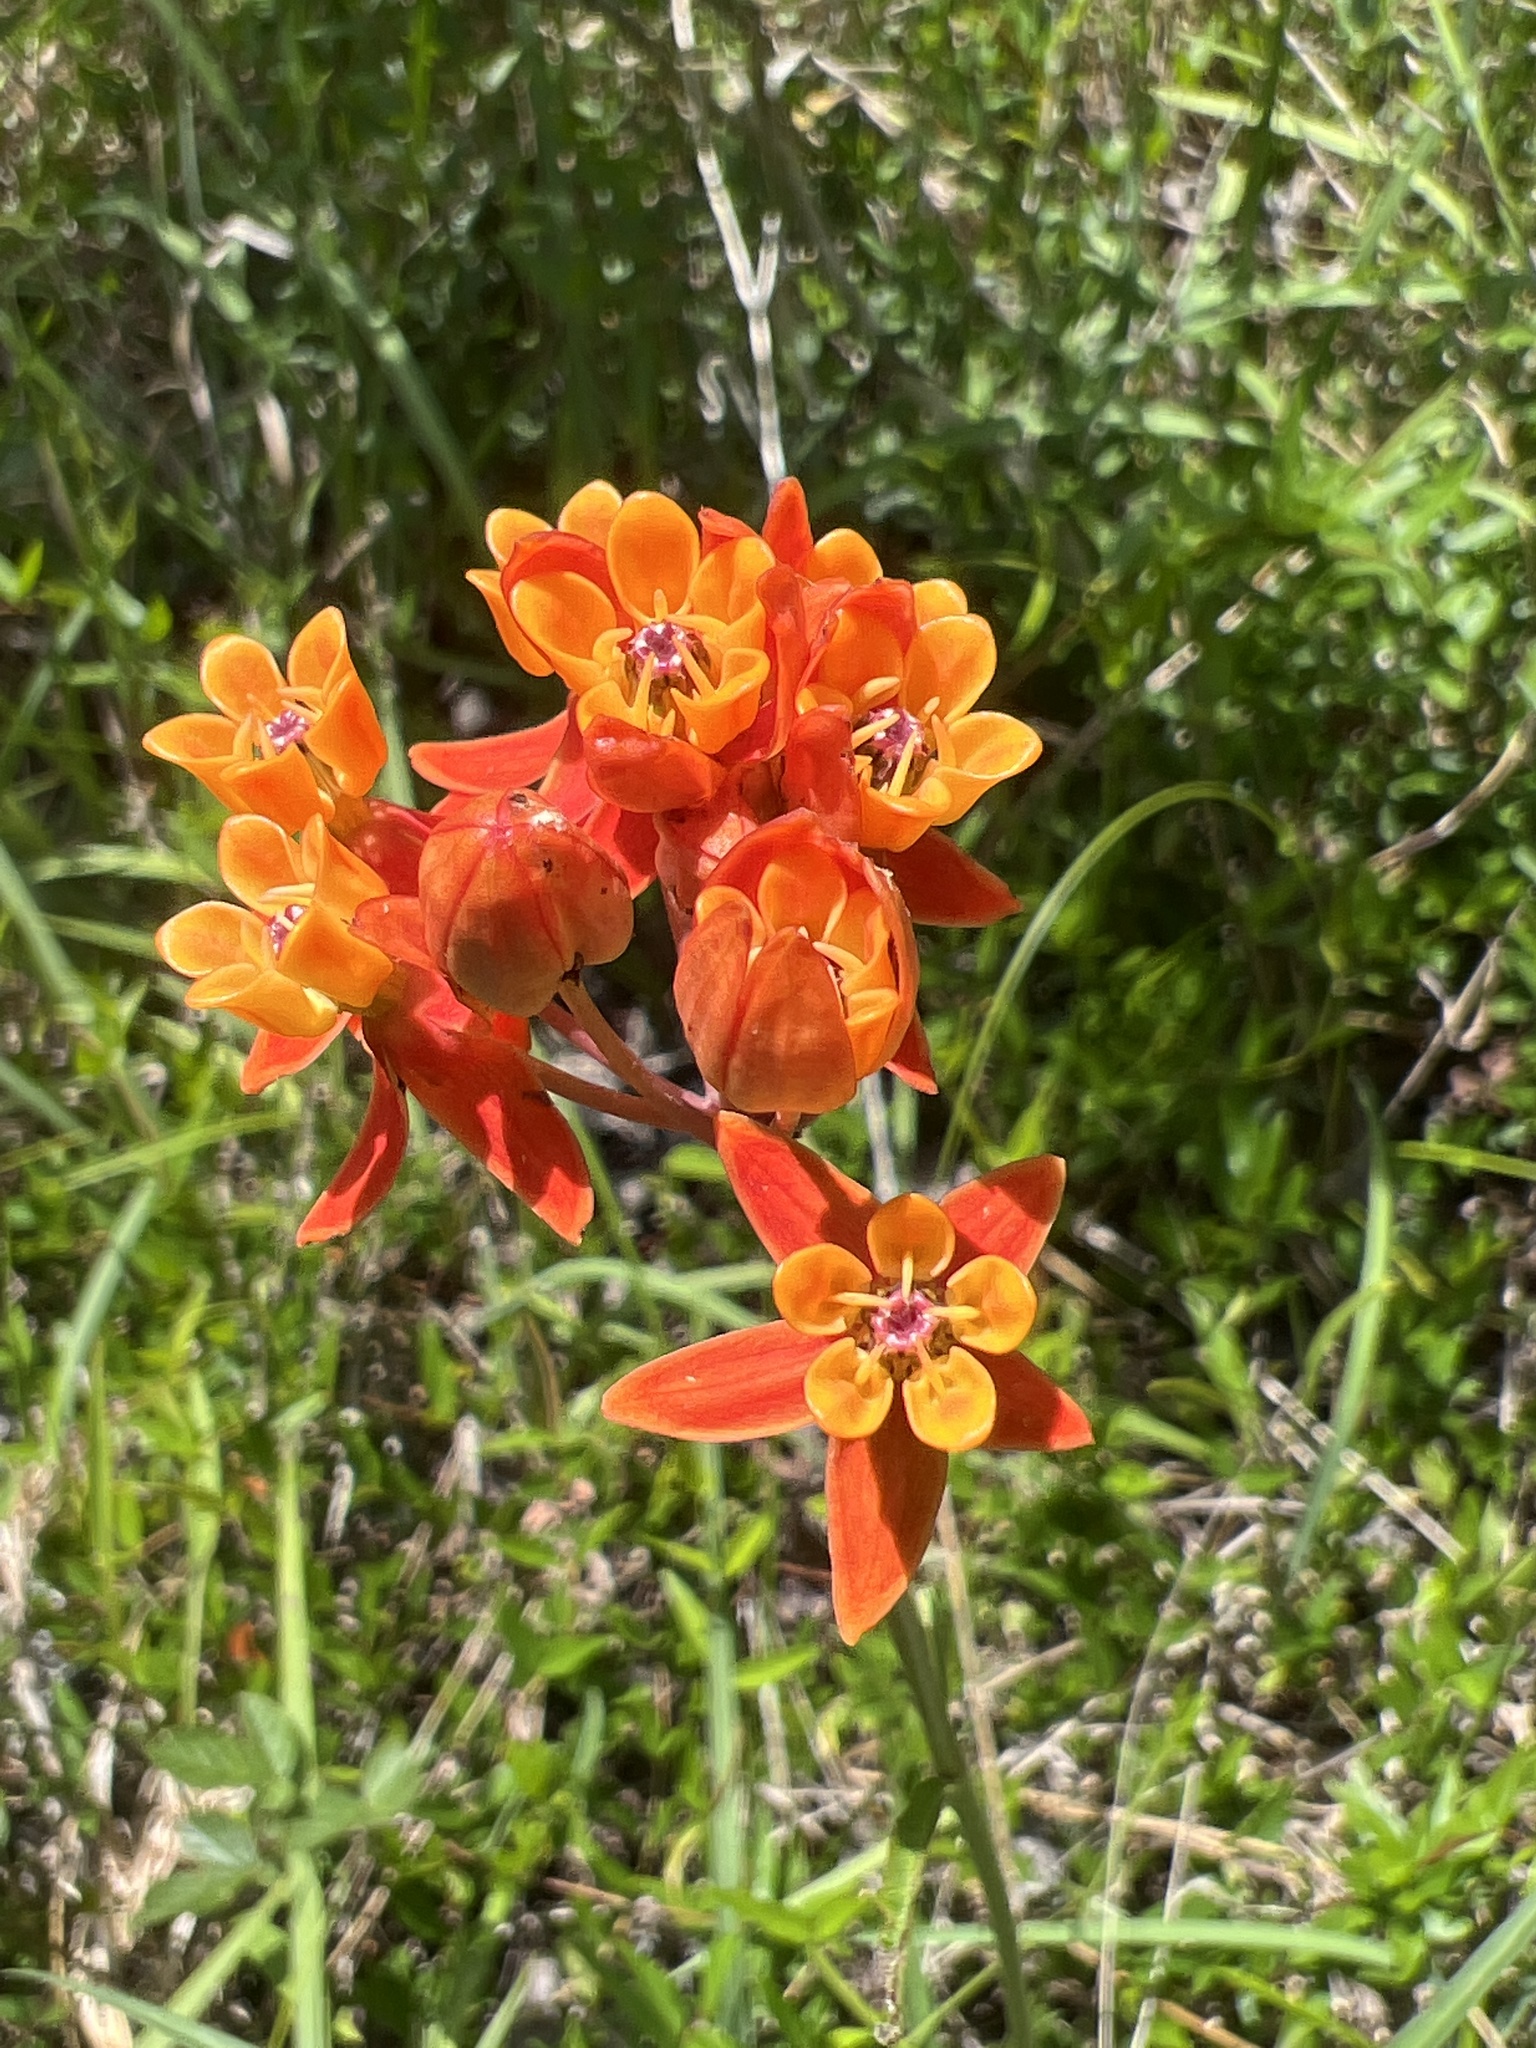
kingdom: Plantae
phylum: Tracheophyta
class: Magnoliopsida
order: Gentianales
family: Apocynaceae
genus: Asclepias
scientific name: Asclepias lanceolata
